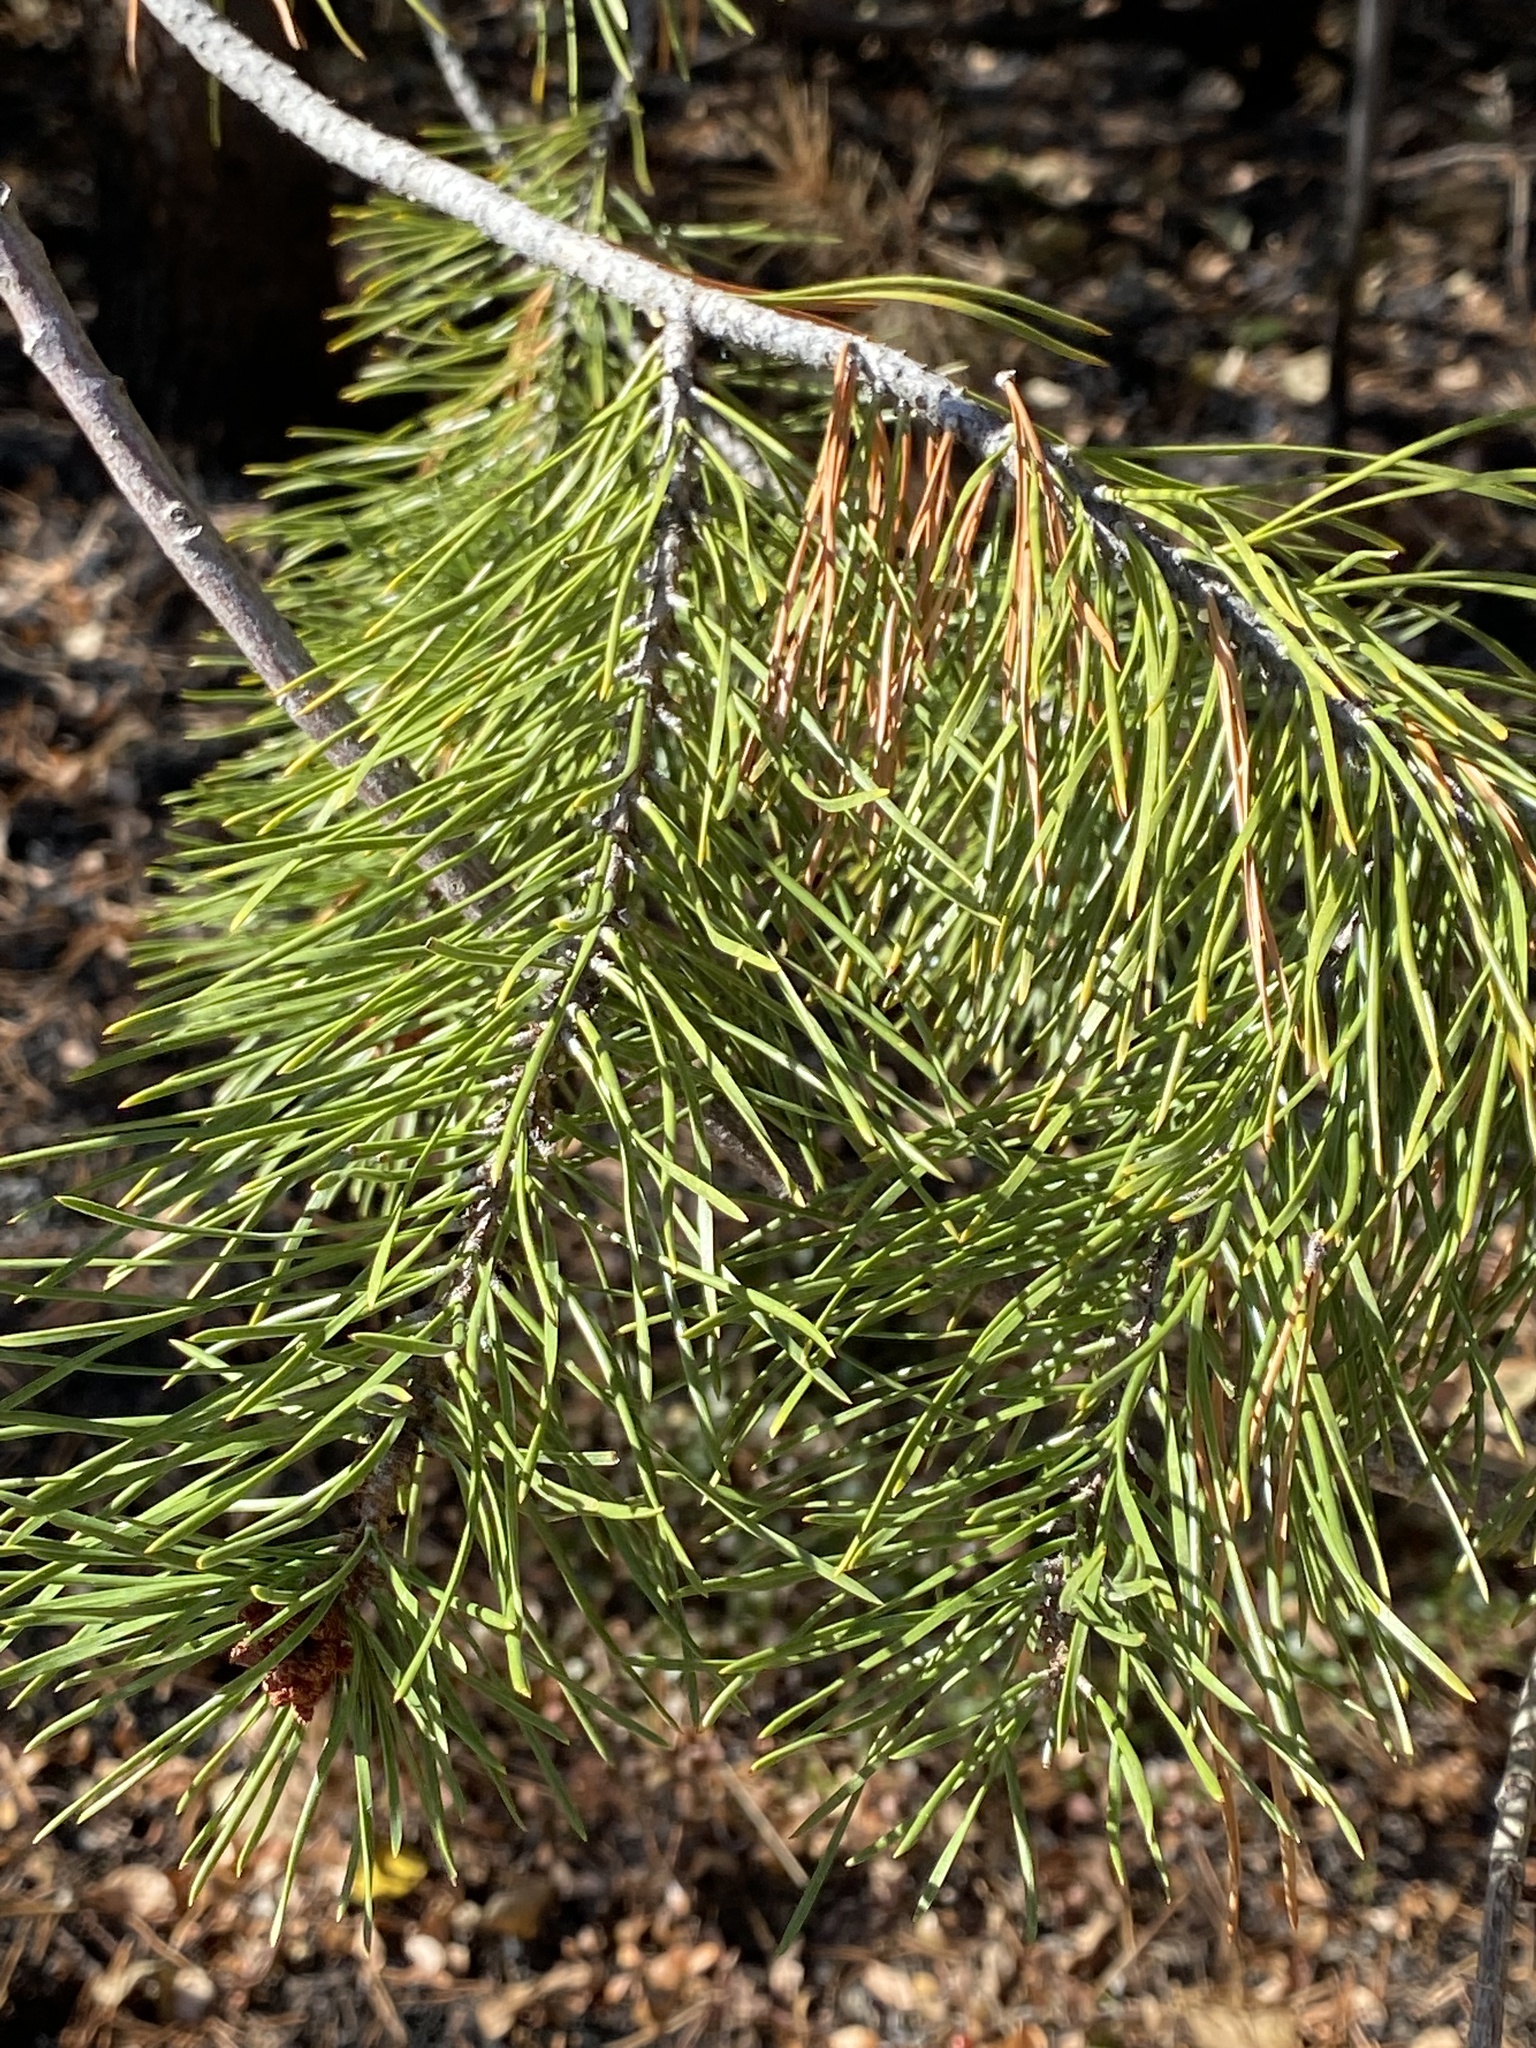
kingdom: Plantae
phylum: Tracheophyta
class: Pinopsida
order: Pinales
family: Pinaceae
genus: Pinus
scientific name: Pinus contorta
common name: Lodgepole pine
